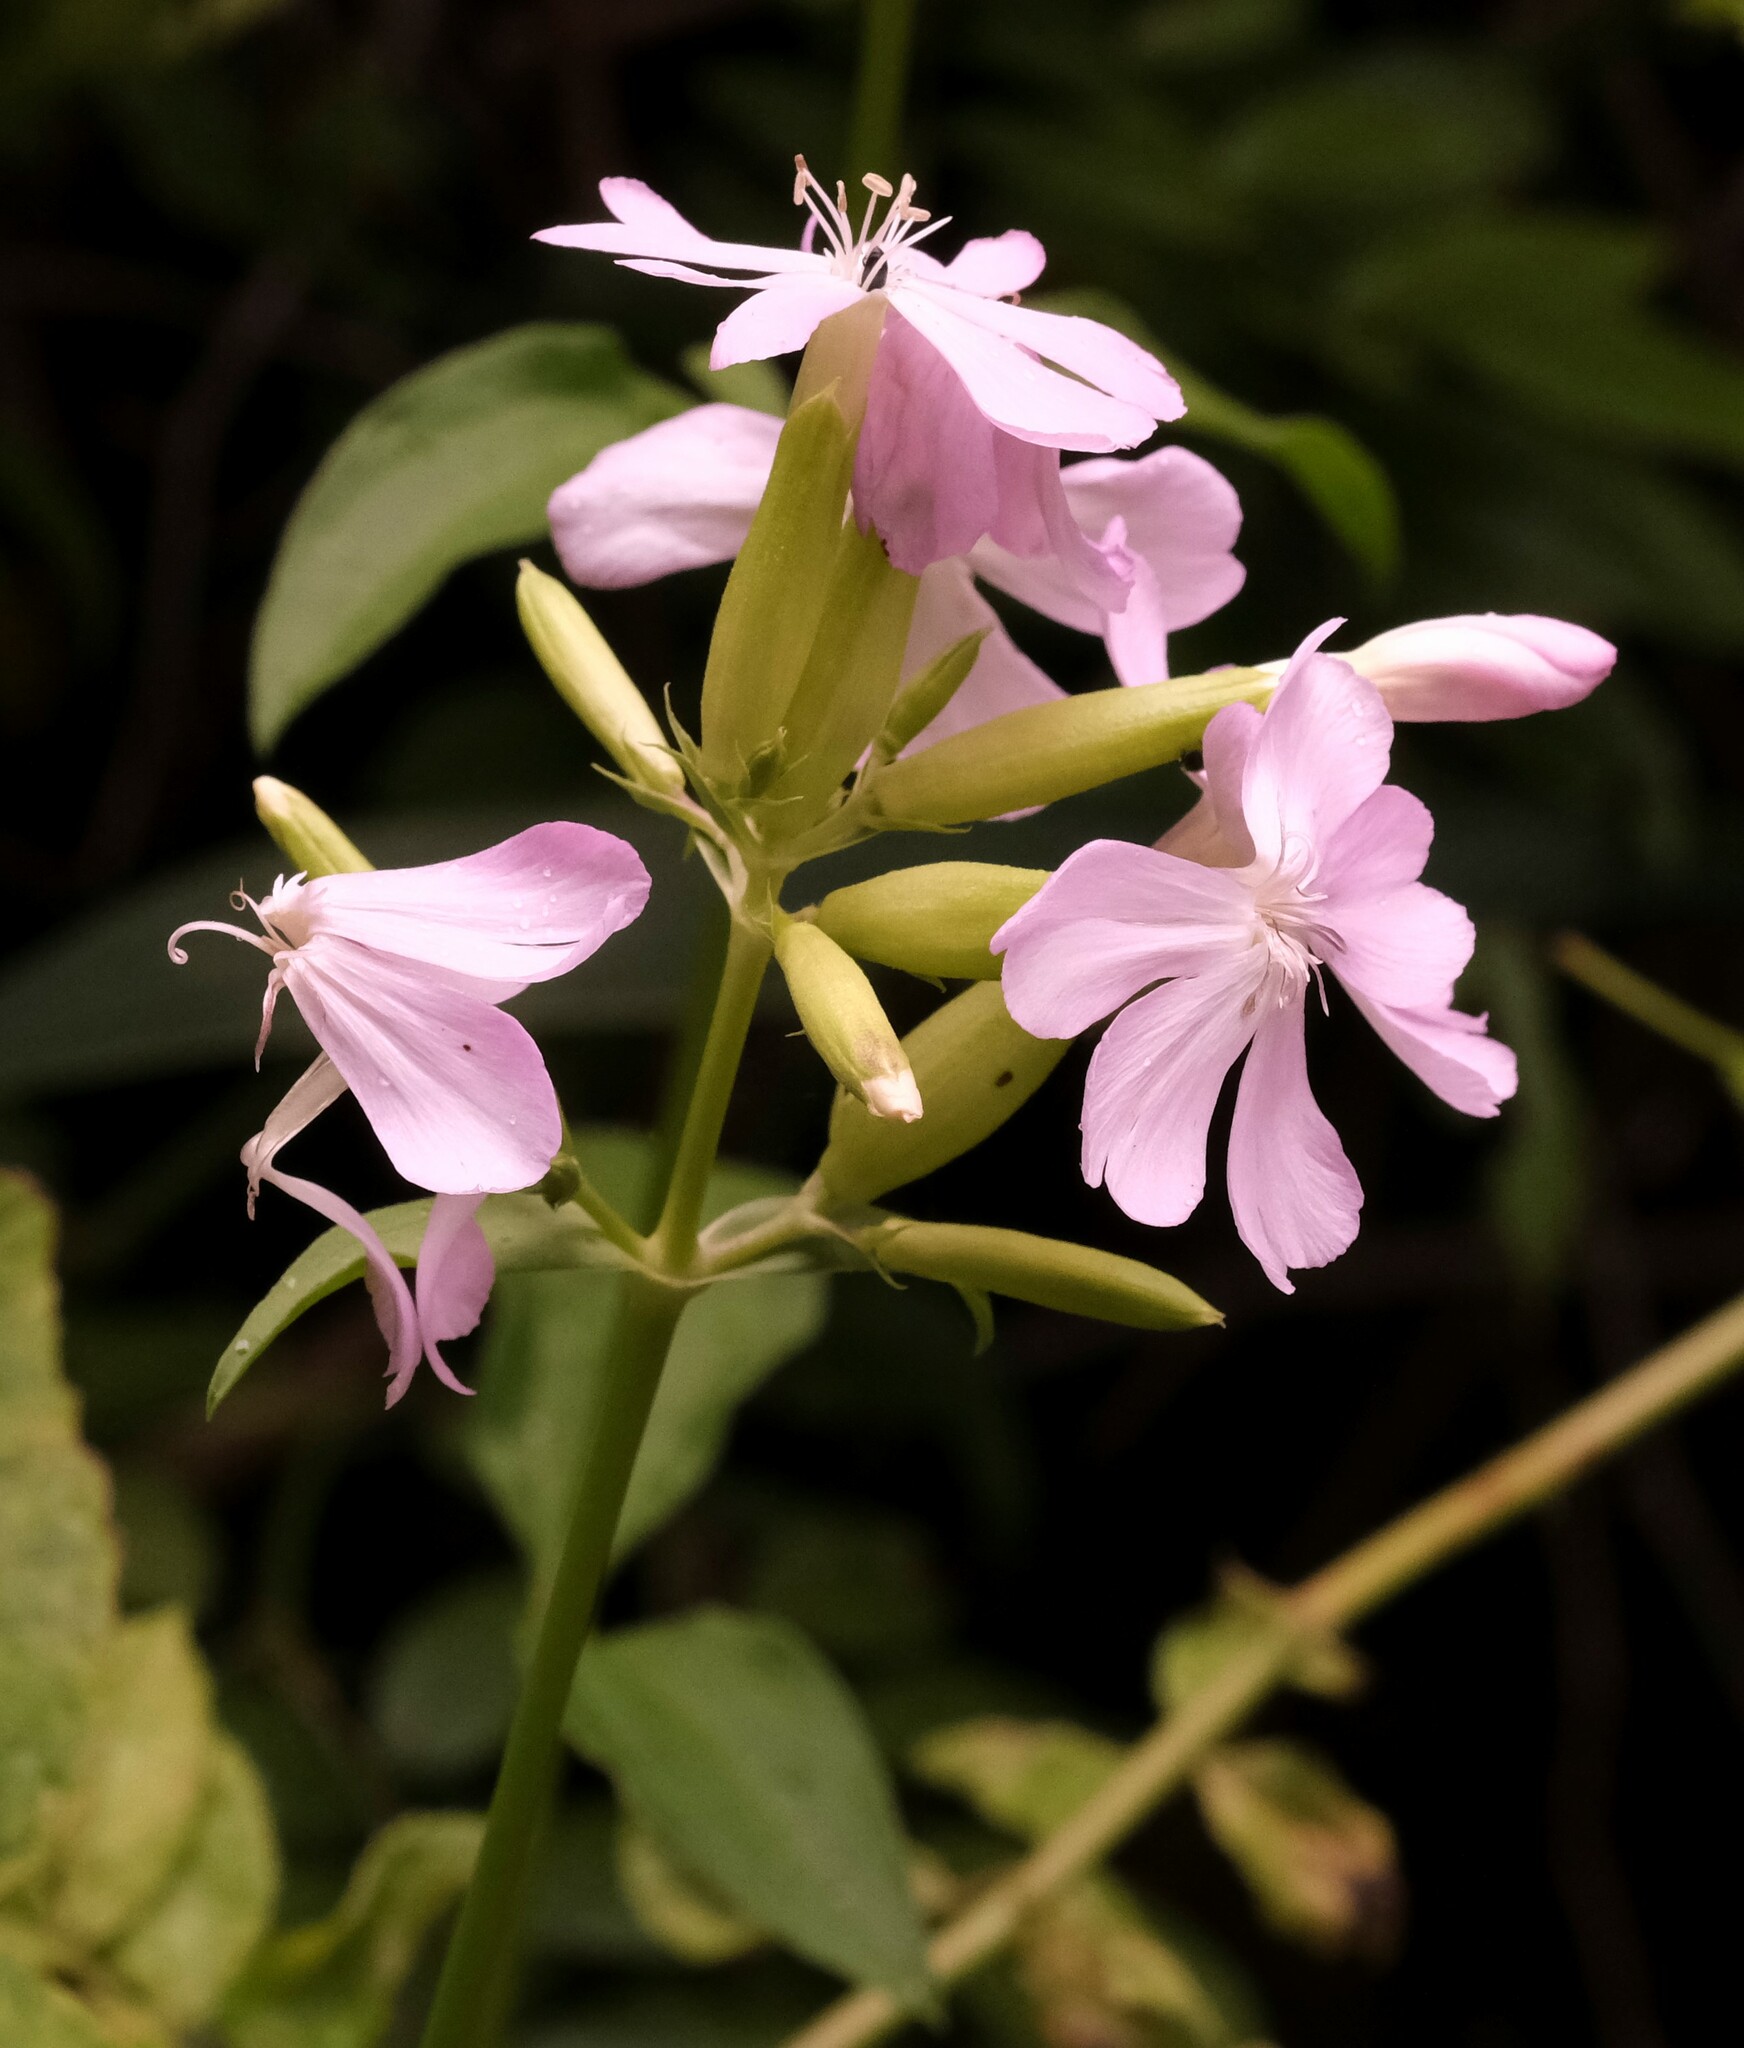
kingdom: Plantae
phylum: Tracheophyta
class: Magnoliopsida
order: Caryophyllales
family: Caryophyllaceae
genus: Saponaria
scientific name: Saponaria officinalis
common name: Soapwort
